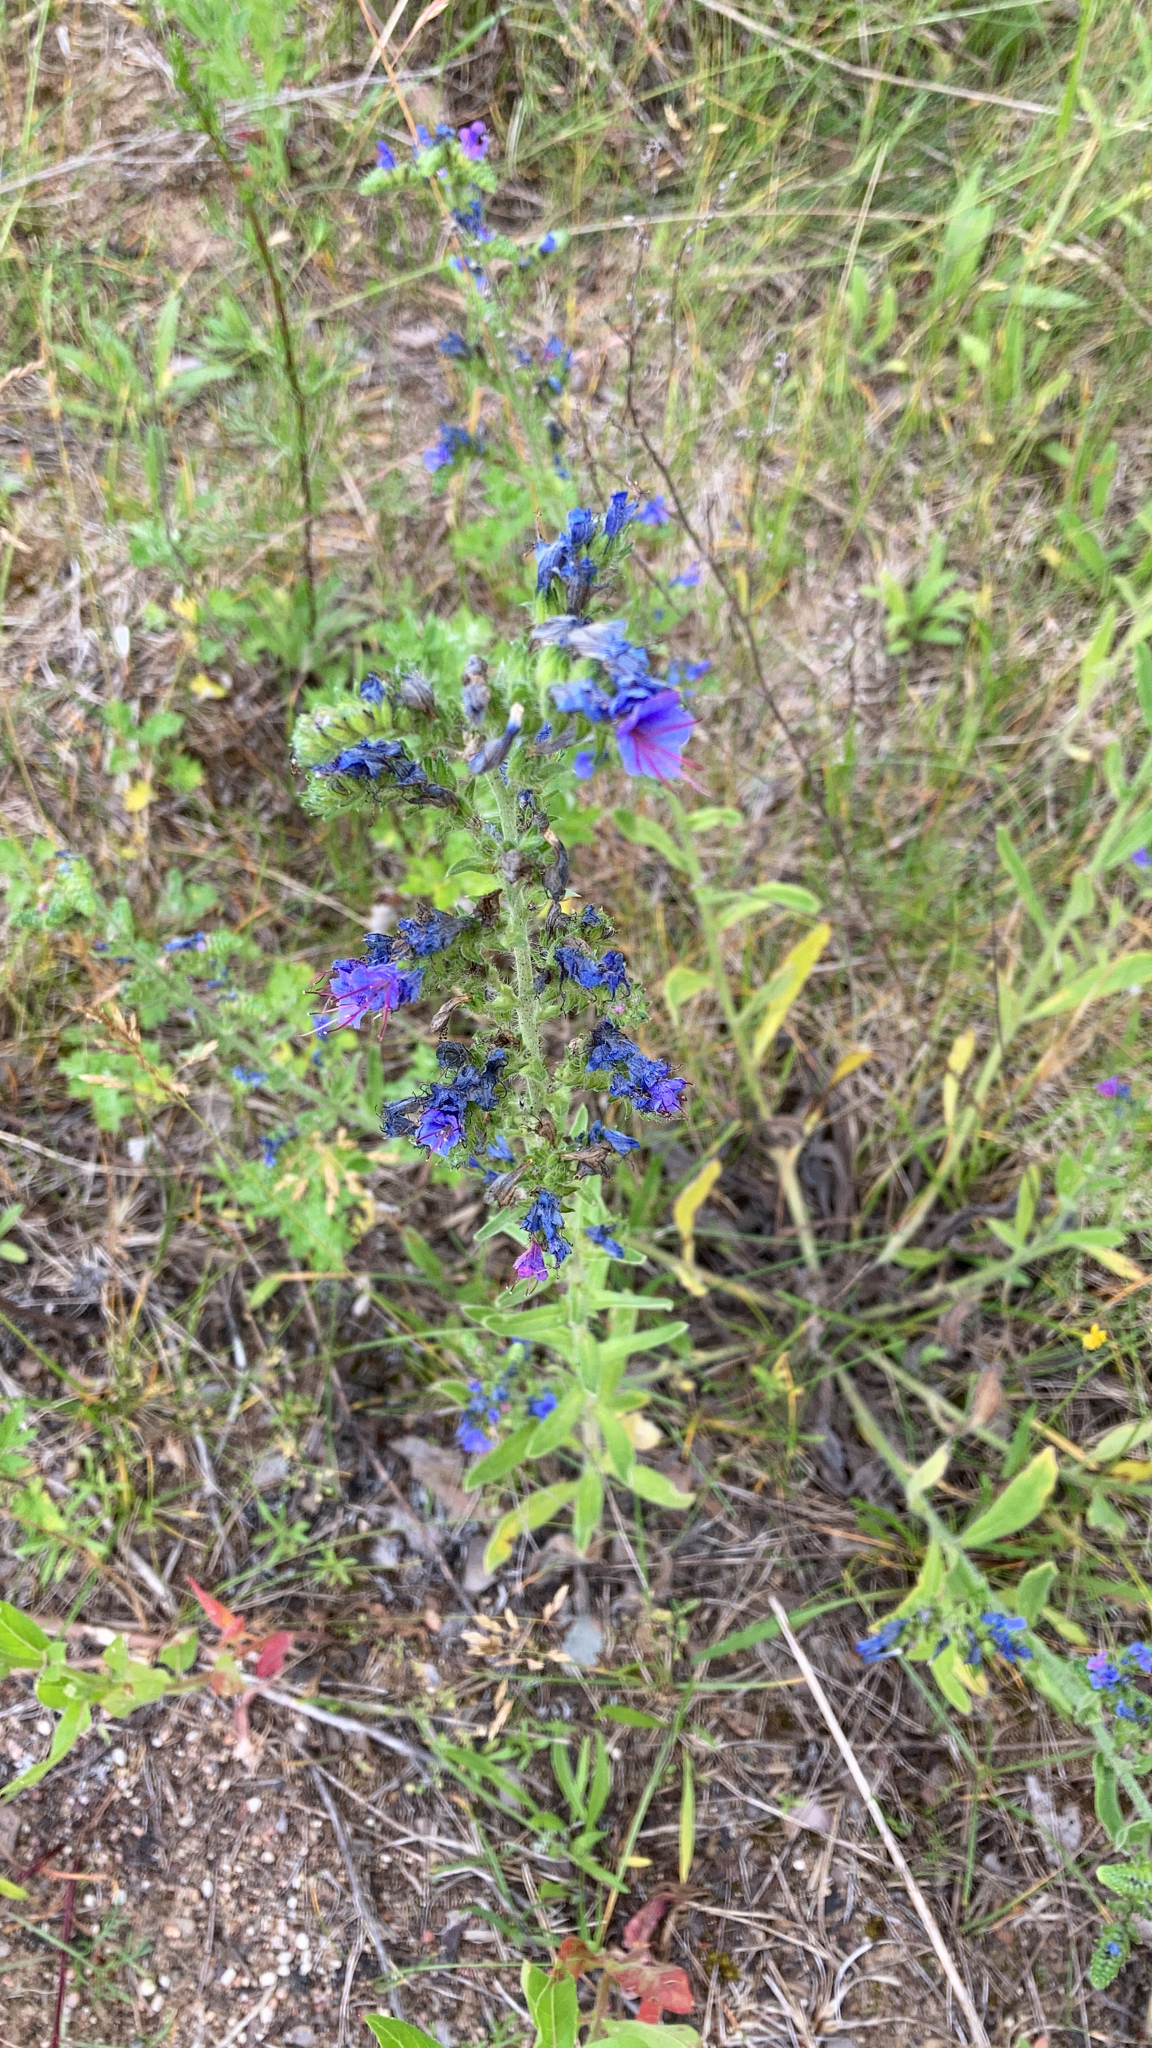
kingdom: Plantae
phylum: Tracheophyta
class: Magnoliopsida
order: Boraginales
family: Boraginaceae
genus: Echium
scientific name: Echium vulgare
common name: Common viper's bugloss
